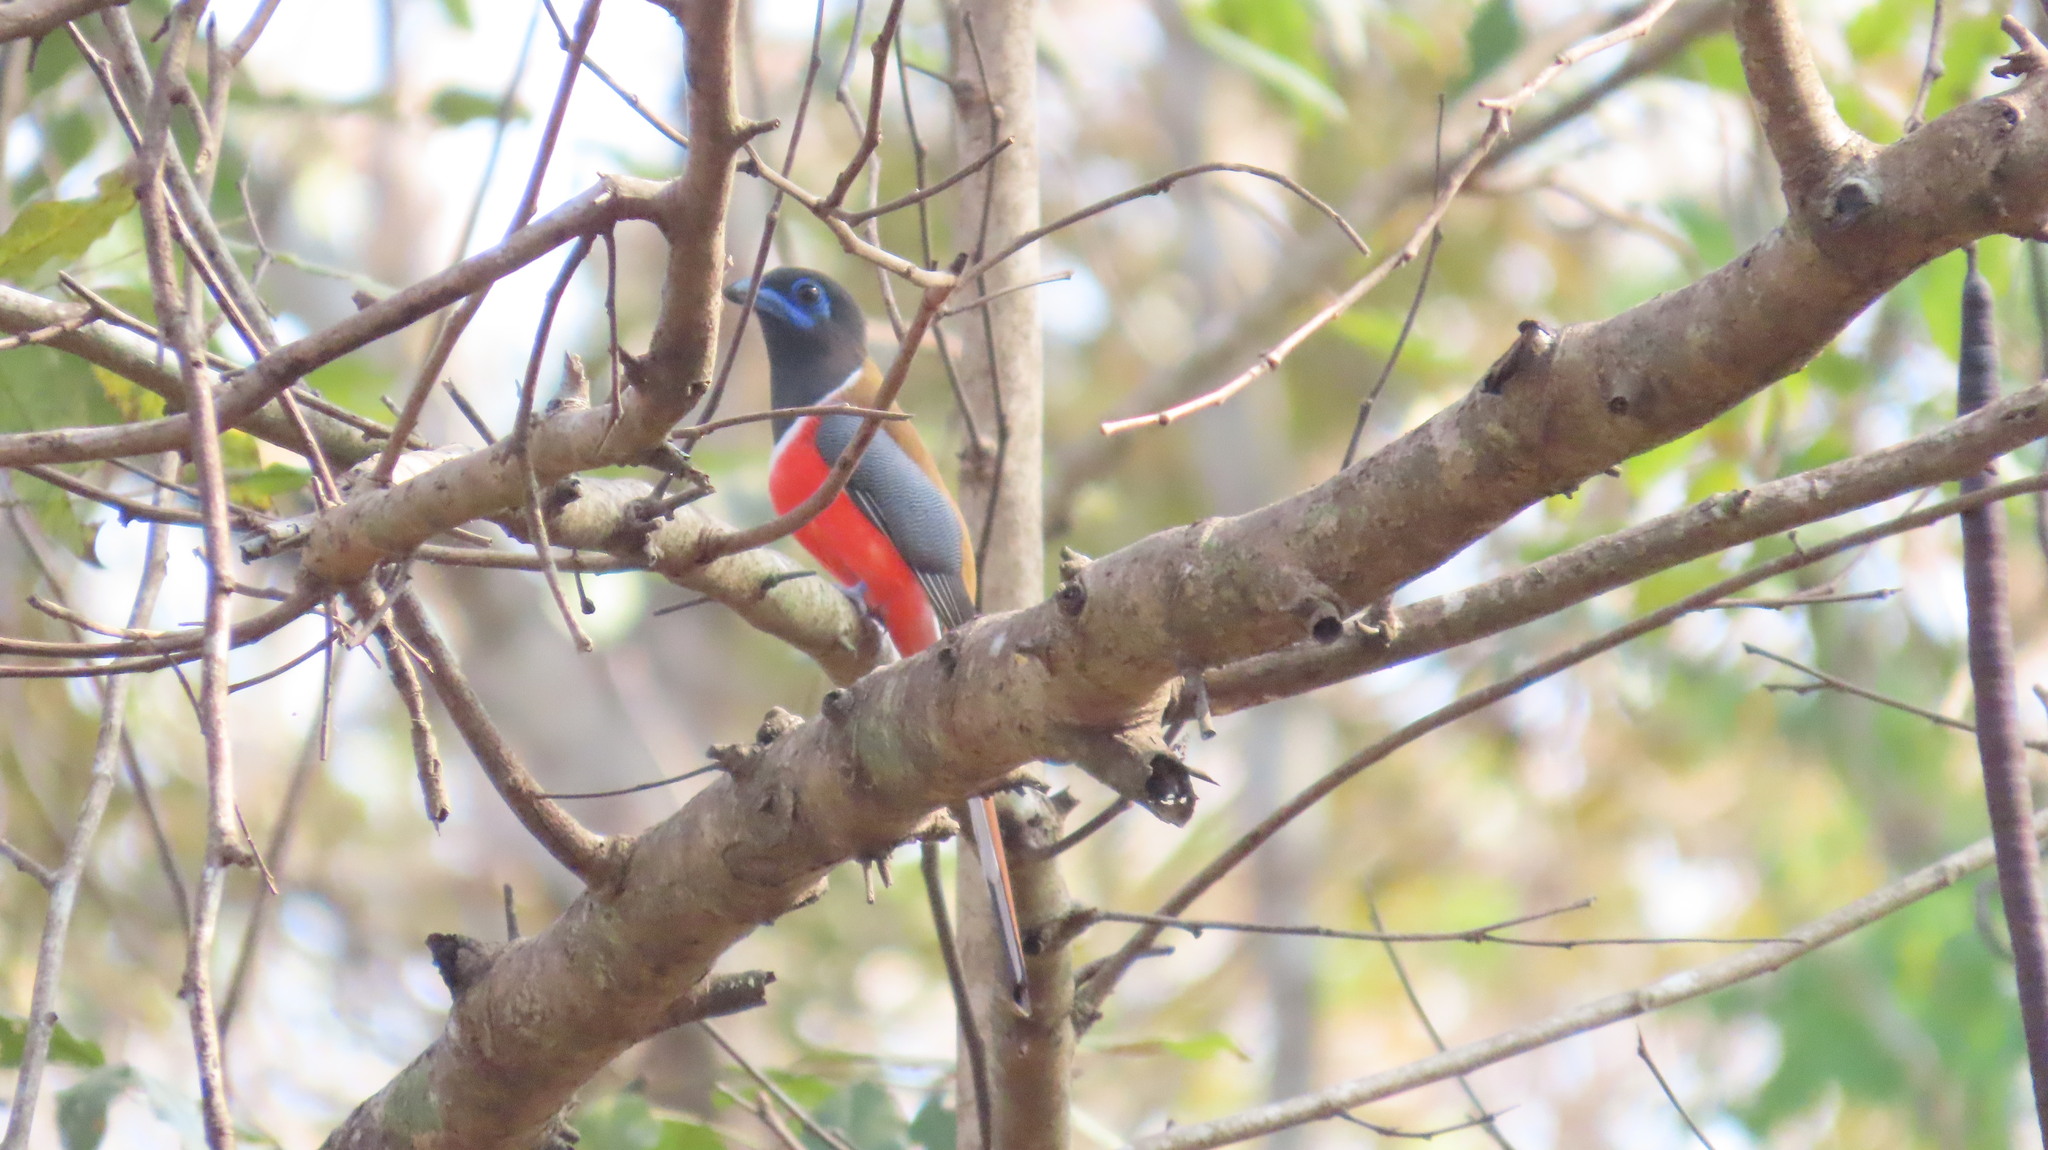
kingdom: Animalia
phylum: Chordata
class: Aves
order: Trogoniformes
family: Trogonidae
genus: Harpactes
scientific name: Harpactes fasciatus
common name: Malabar trogon
